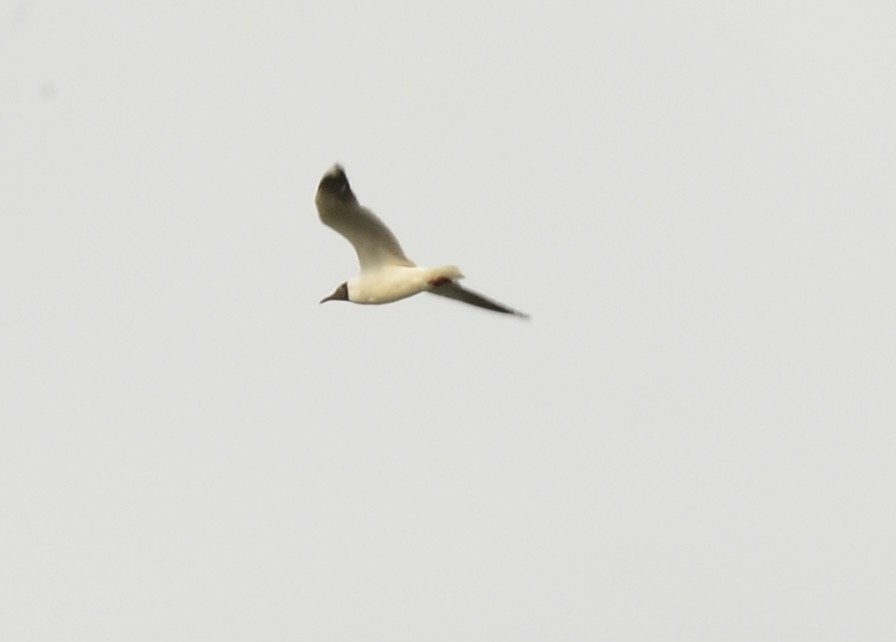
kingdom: Animalia
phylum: Chordata
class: Aves
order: Charadriiformes
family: Laridae
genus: Chroicocephalus
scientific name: Chroicocephalus brunnicephalus
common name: Brown-headed gull
